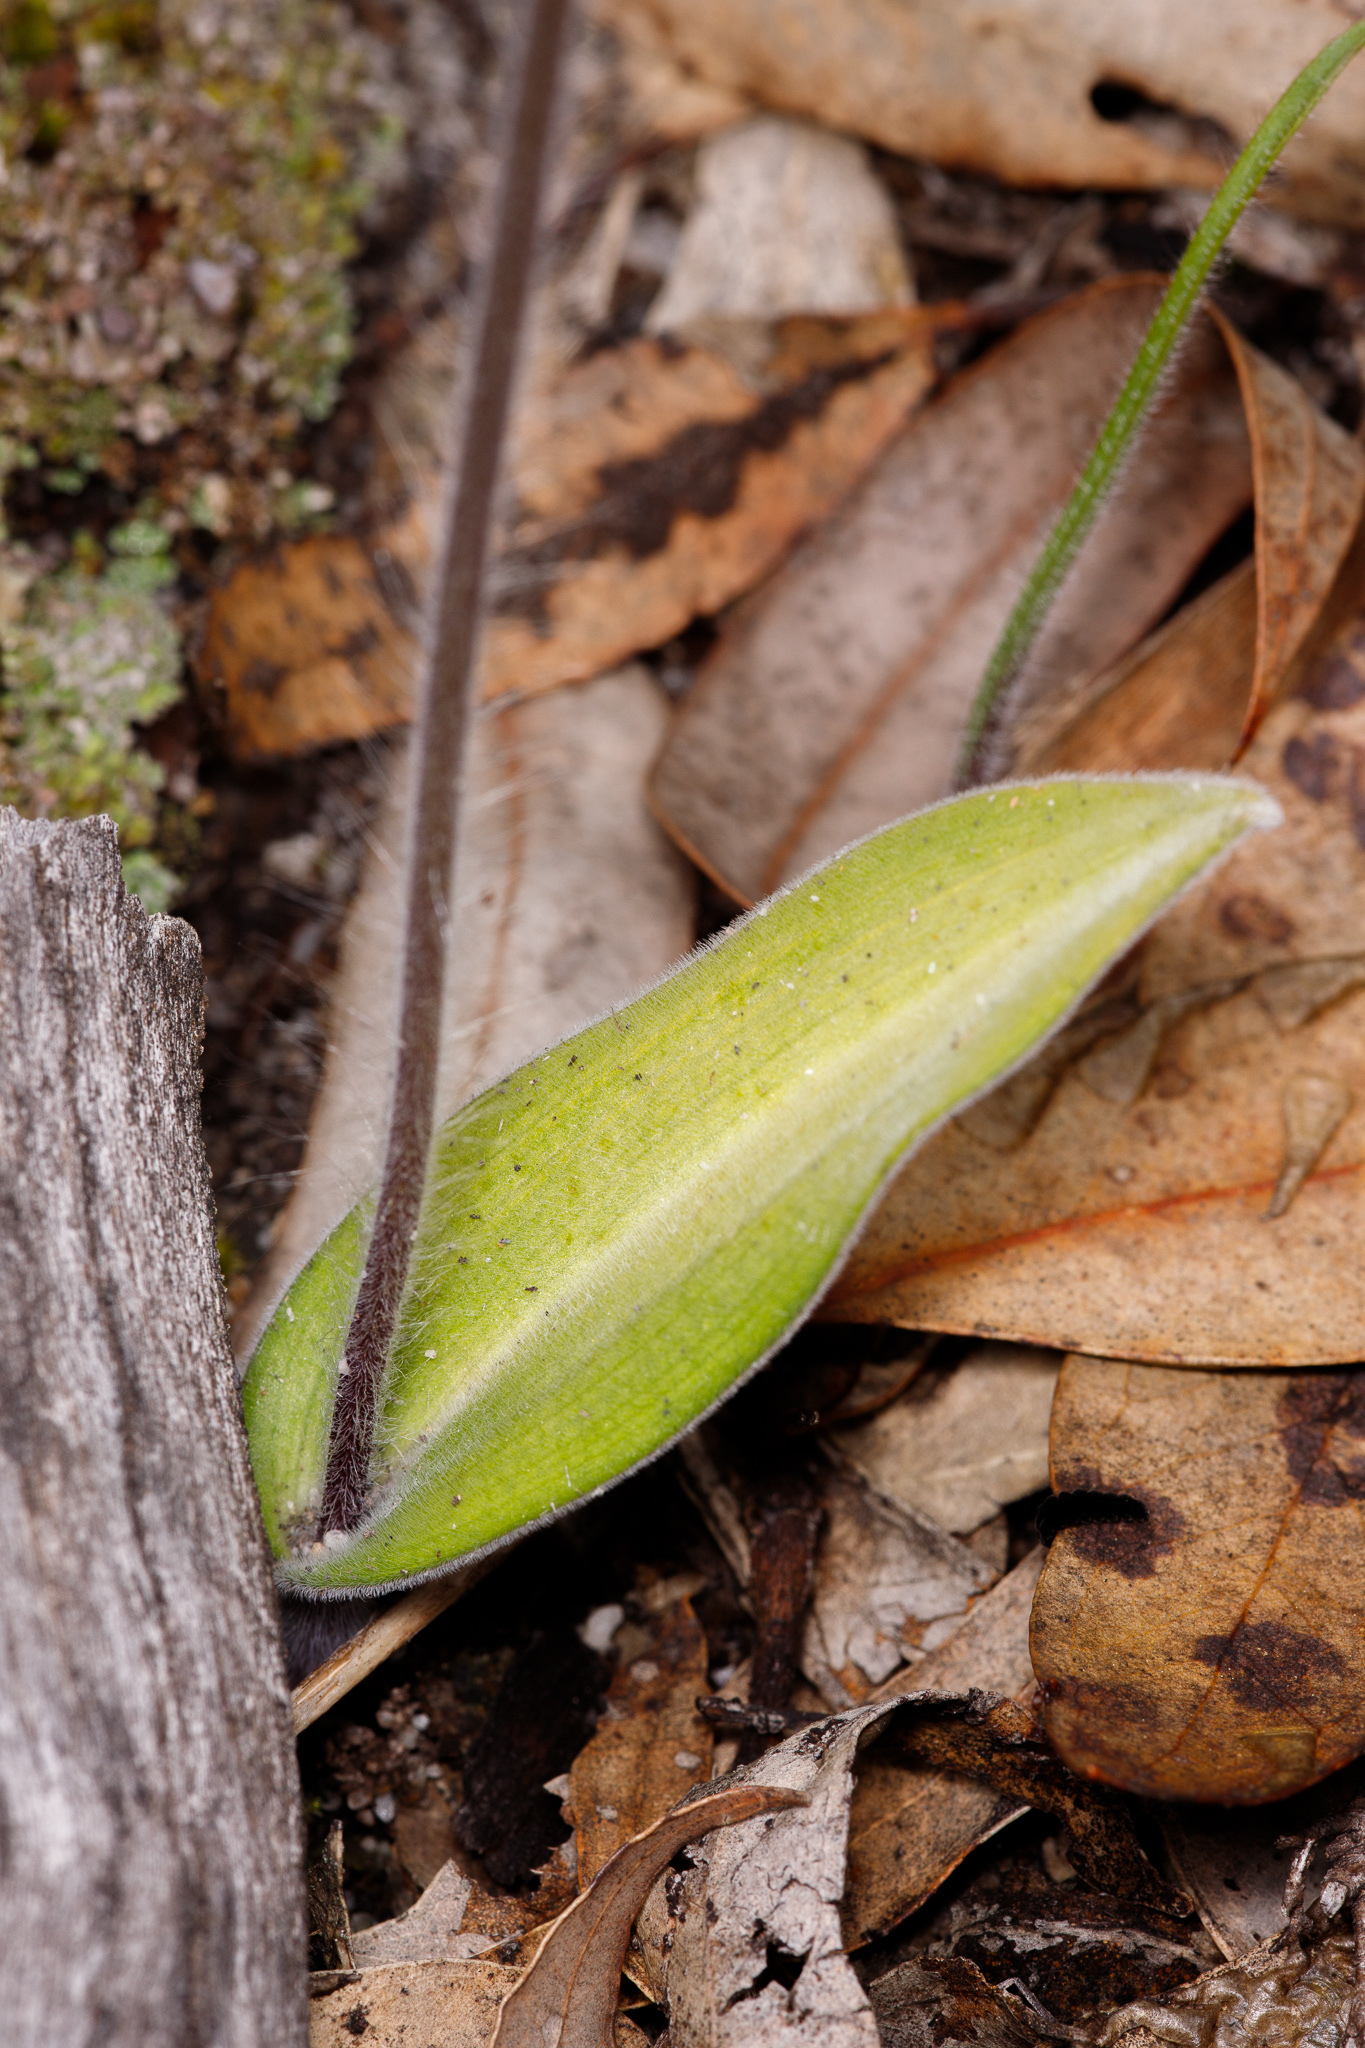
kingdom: Plantae
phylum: Tracheophyta
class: Liliopsida
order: Asparagales
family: Orchidaceae
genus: Caladenia
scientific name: Caladenia sericea
